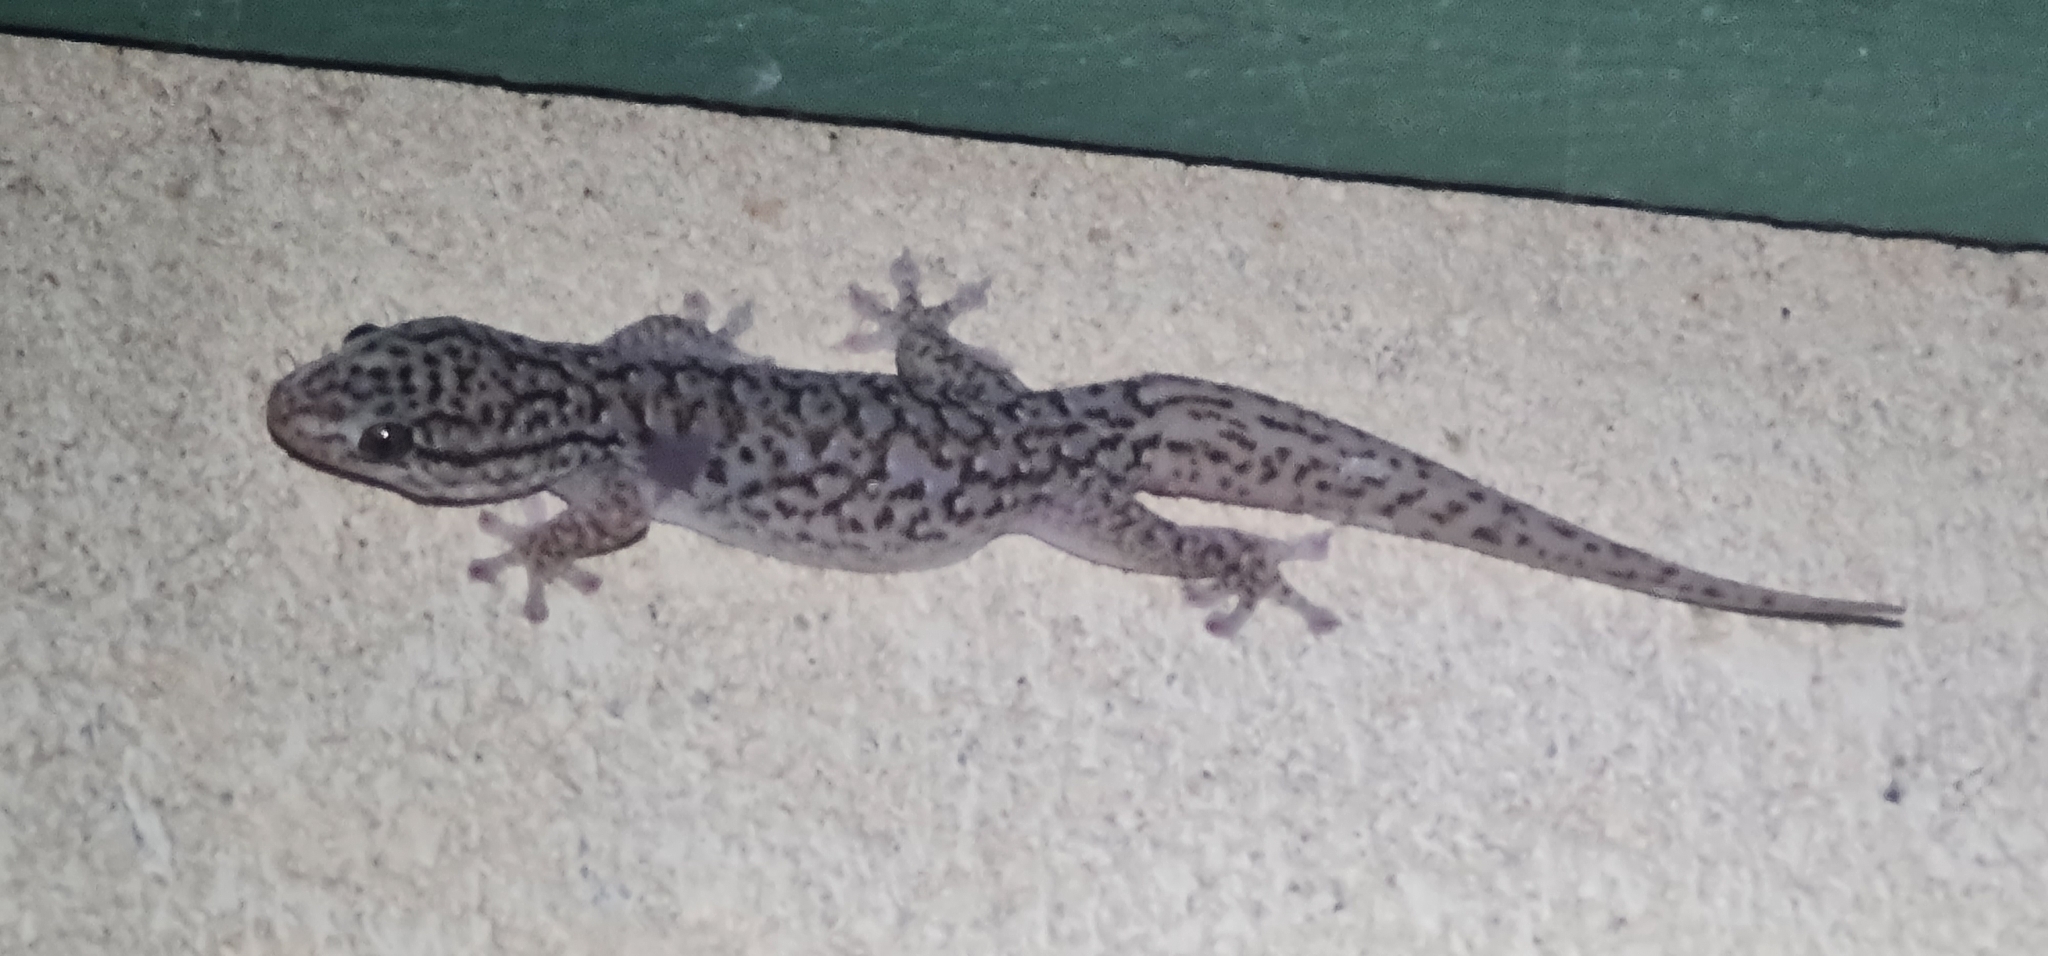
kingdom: Animalia
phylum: Chordata
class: Squamata
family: Gekkonidae
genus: Gehyra
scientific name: Gehyra versicolor
